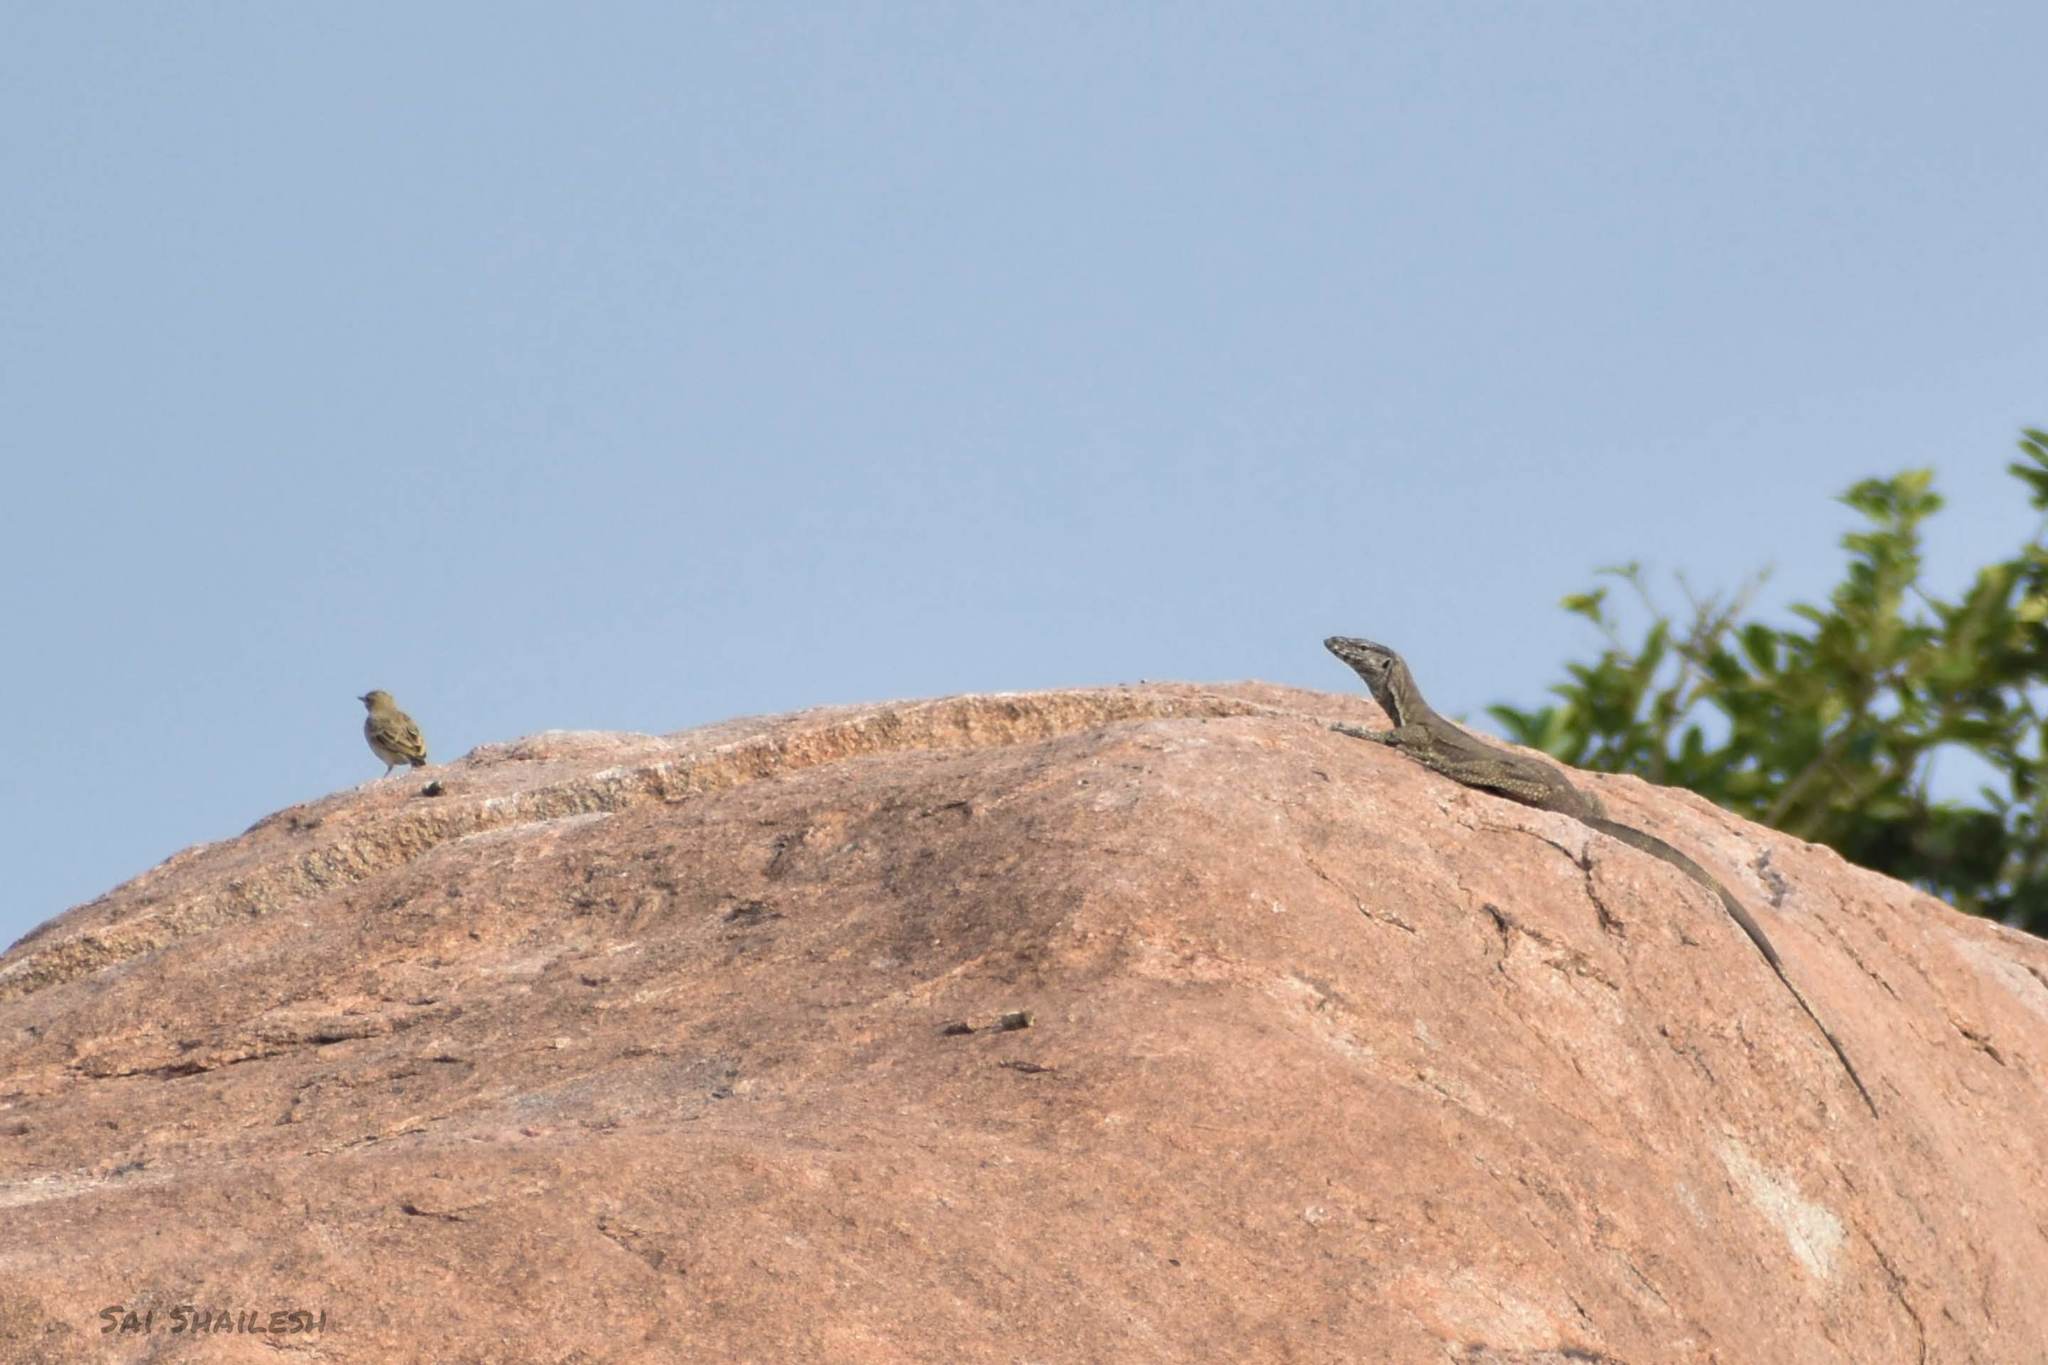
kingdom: Animalia
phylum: Chordata
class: Squamata
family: Varanidae
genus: Varanus
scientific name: Varanus bengalensis
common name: Bengal monitor
